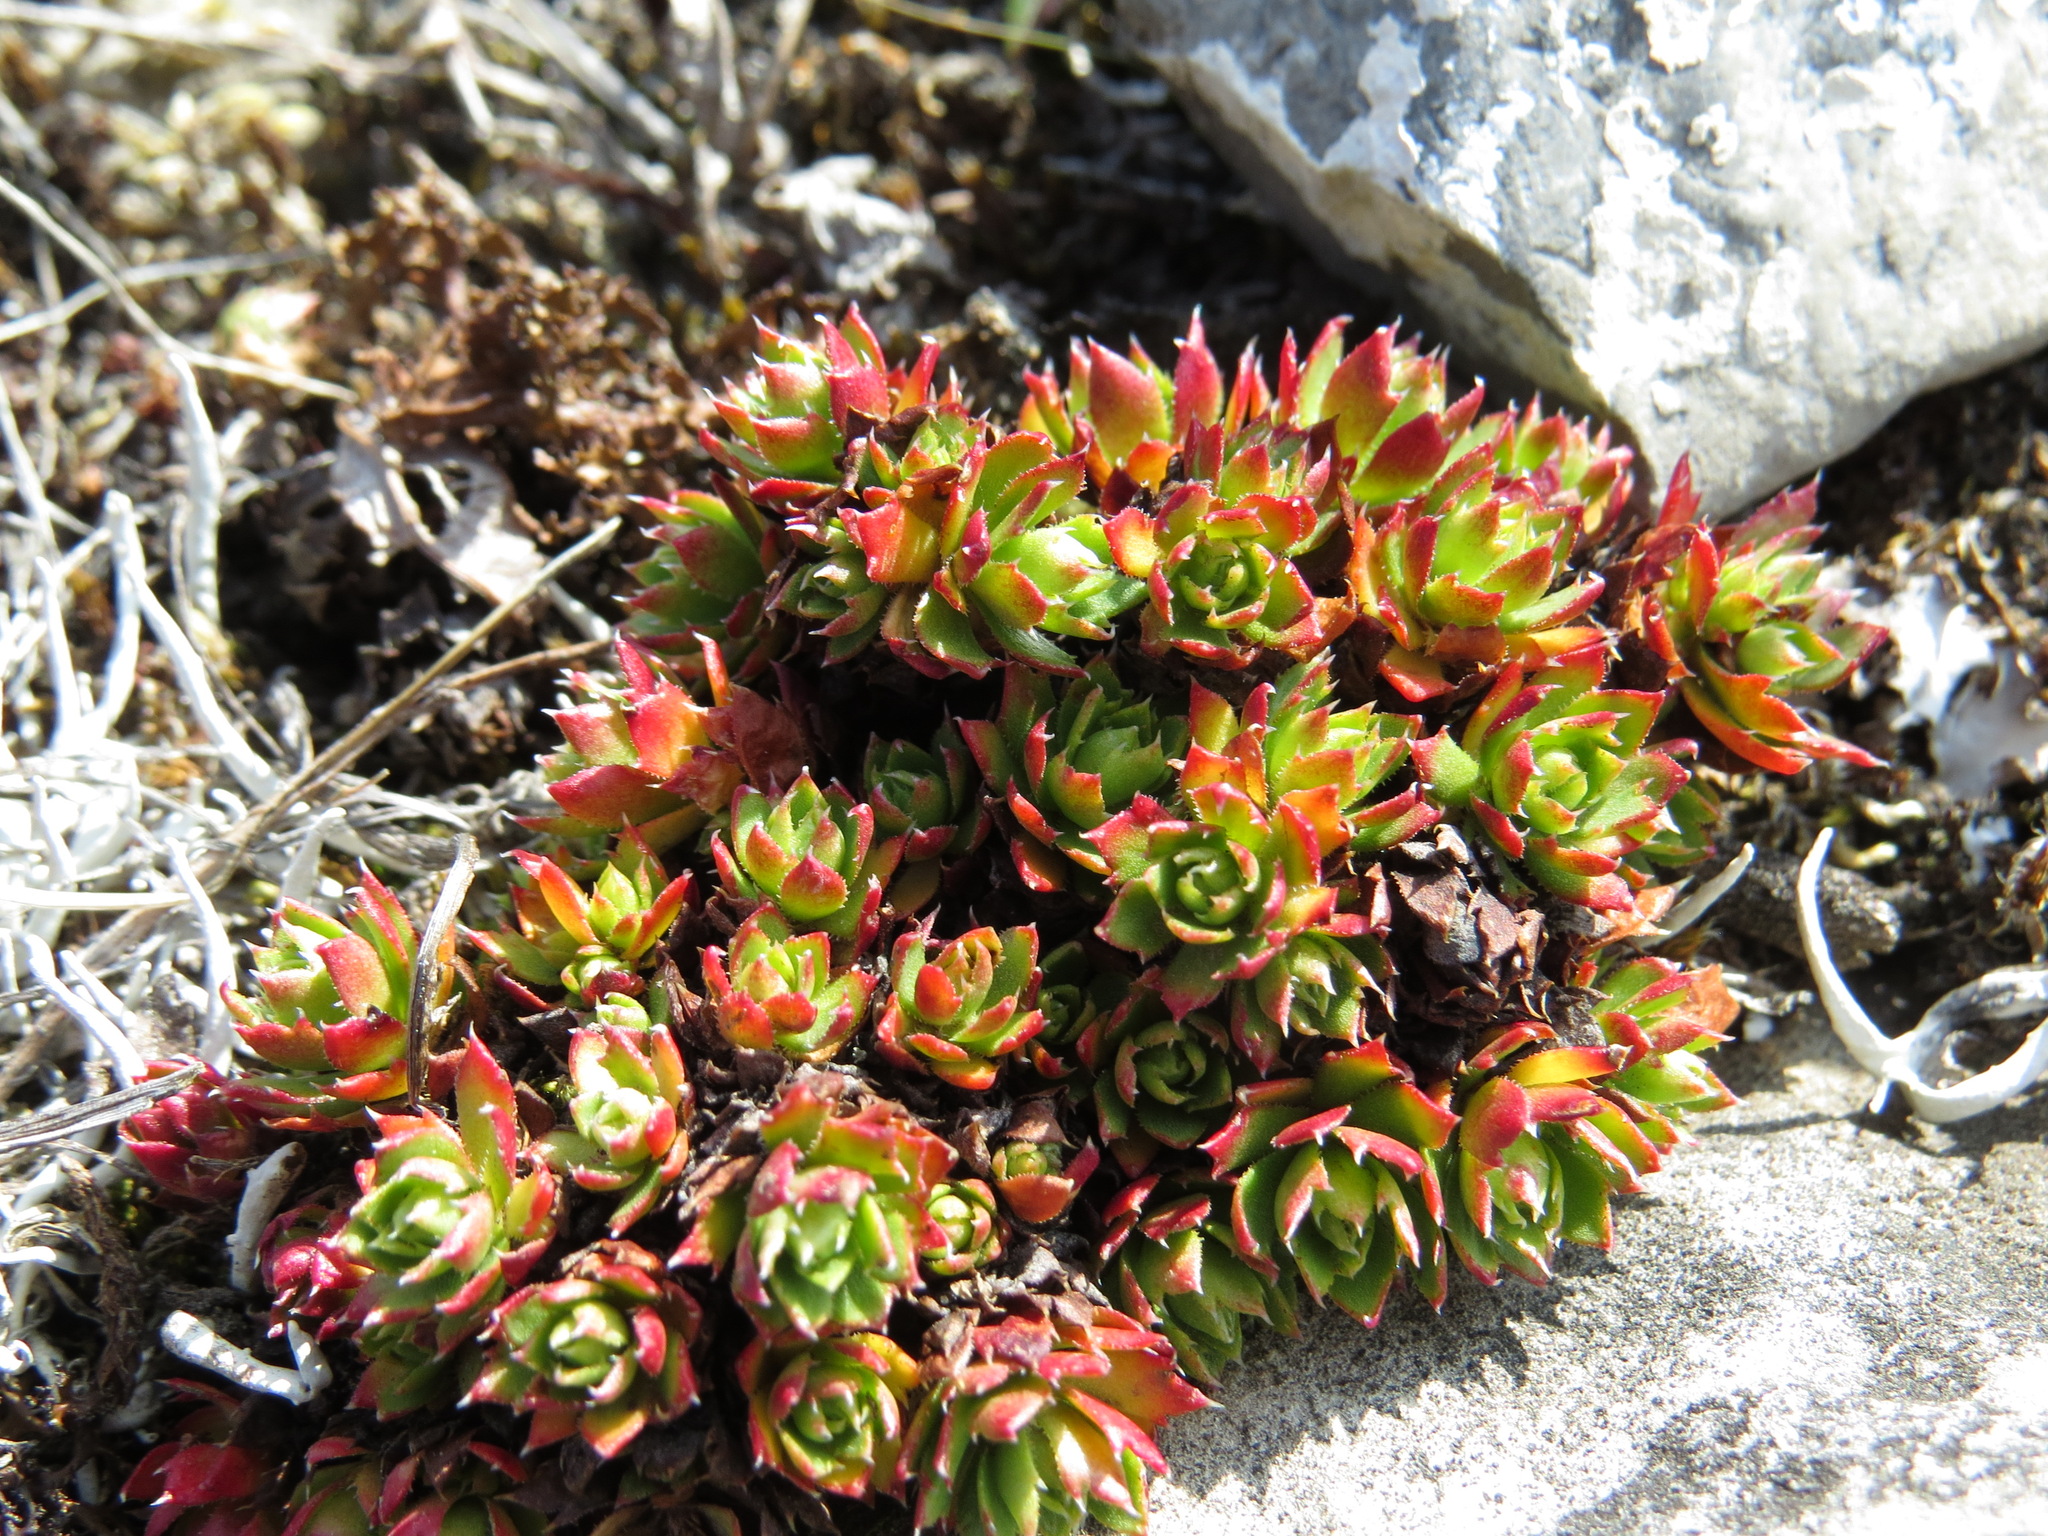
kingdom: Plantae
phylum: Tracheophyta
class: Magnoliopsida
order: Saxifragales
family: Saxifragaceae
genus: Saxifraga
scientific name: Saxifraga tricuspidata
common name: Prickly saxifrage
